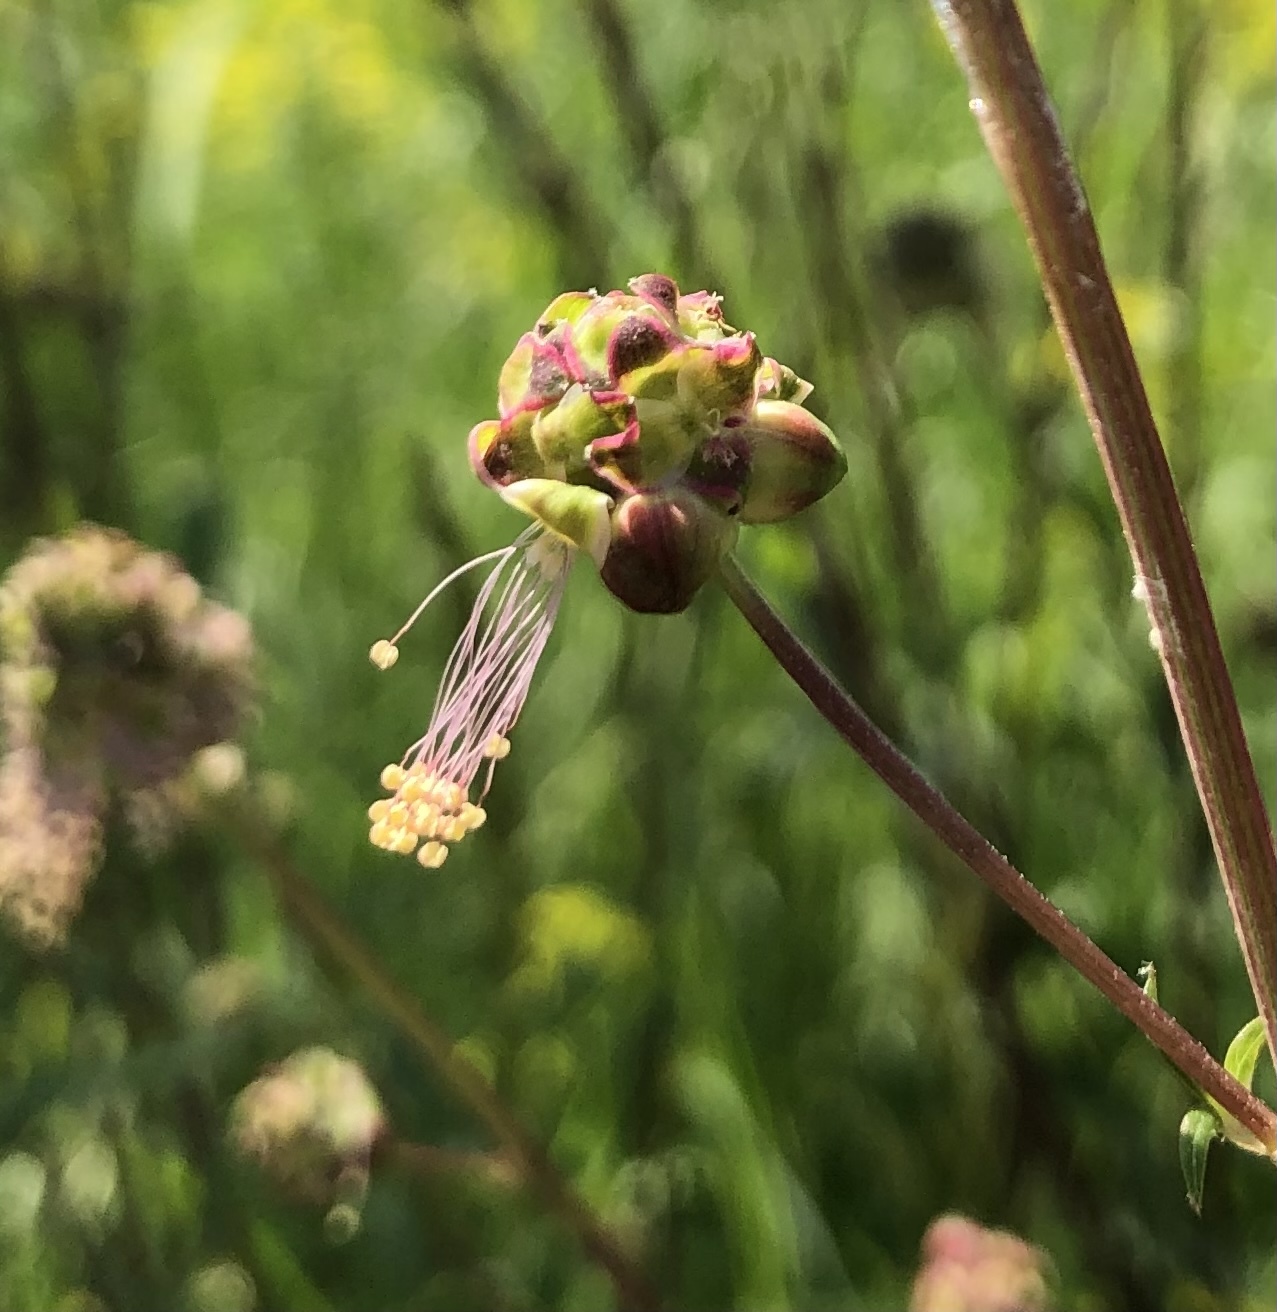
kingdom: Plantae
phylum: Tracheophyta
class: Magnoliopsida
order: Rosales
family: Rosaceae
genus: Poterium
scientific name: Poterium sanguisorba
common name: Salad burnet
